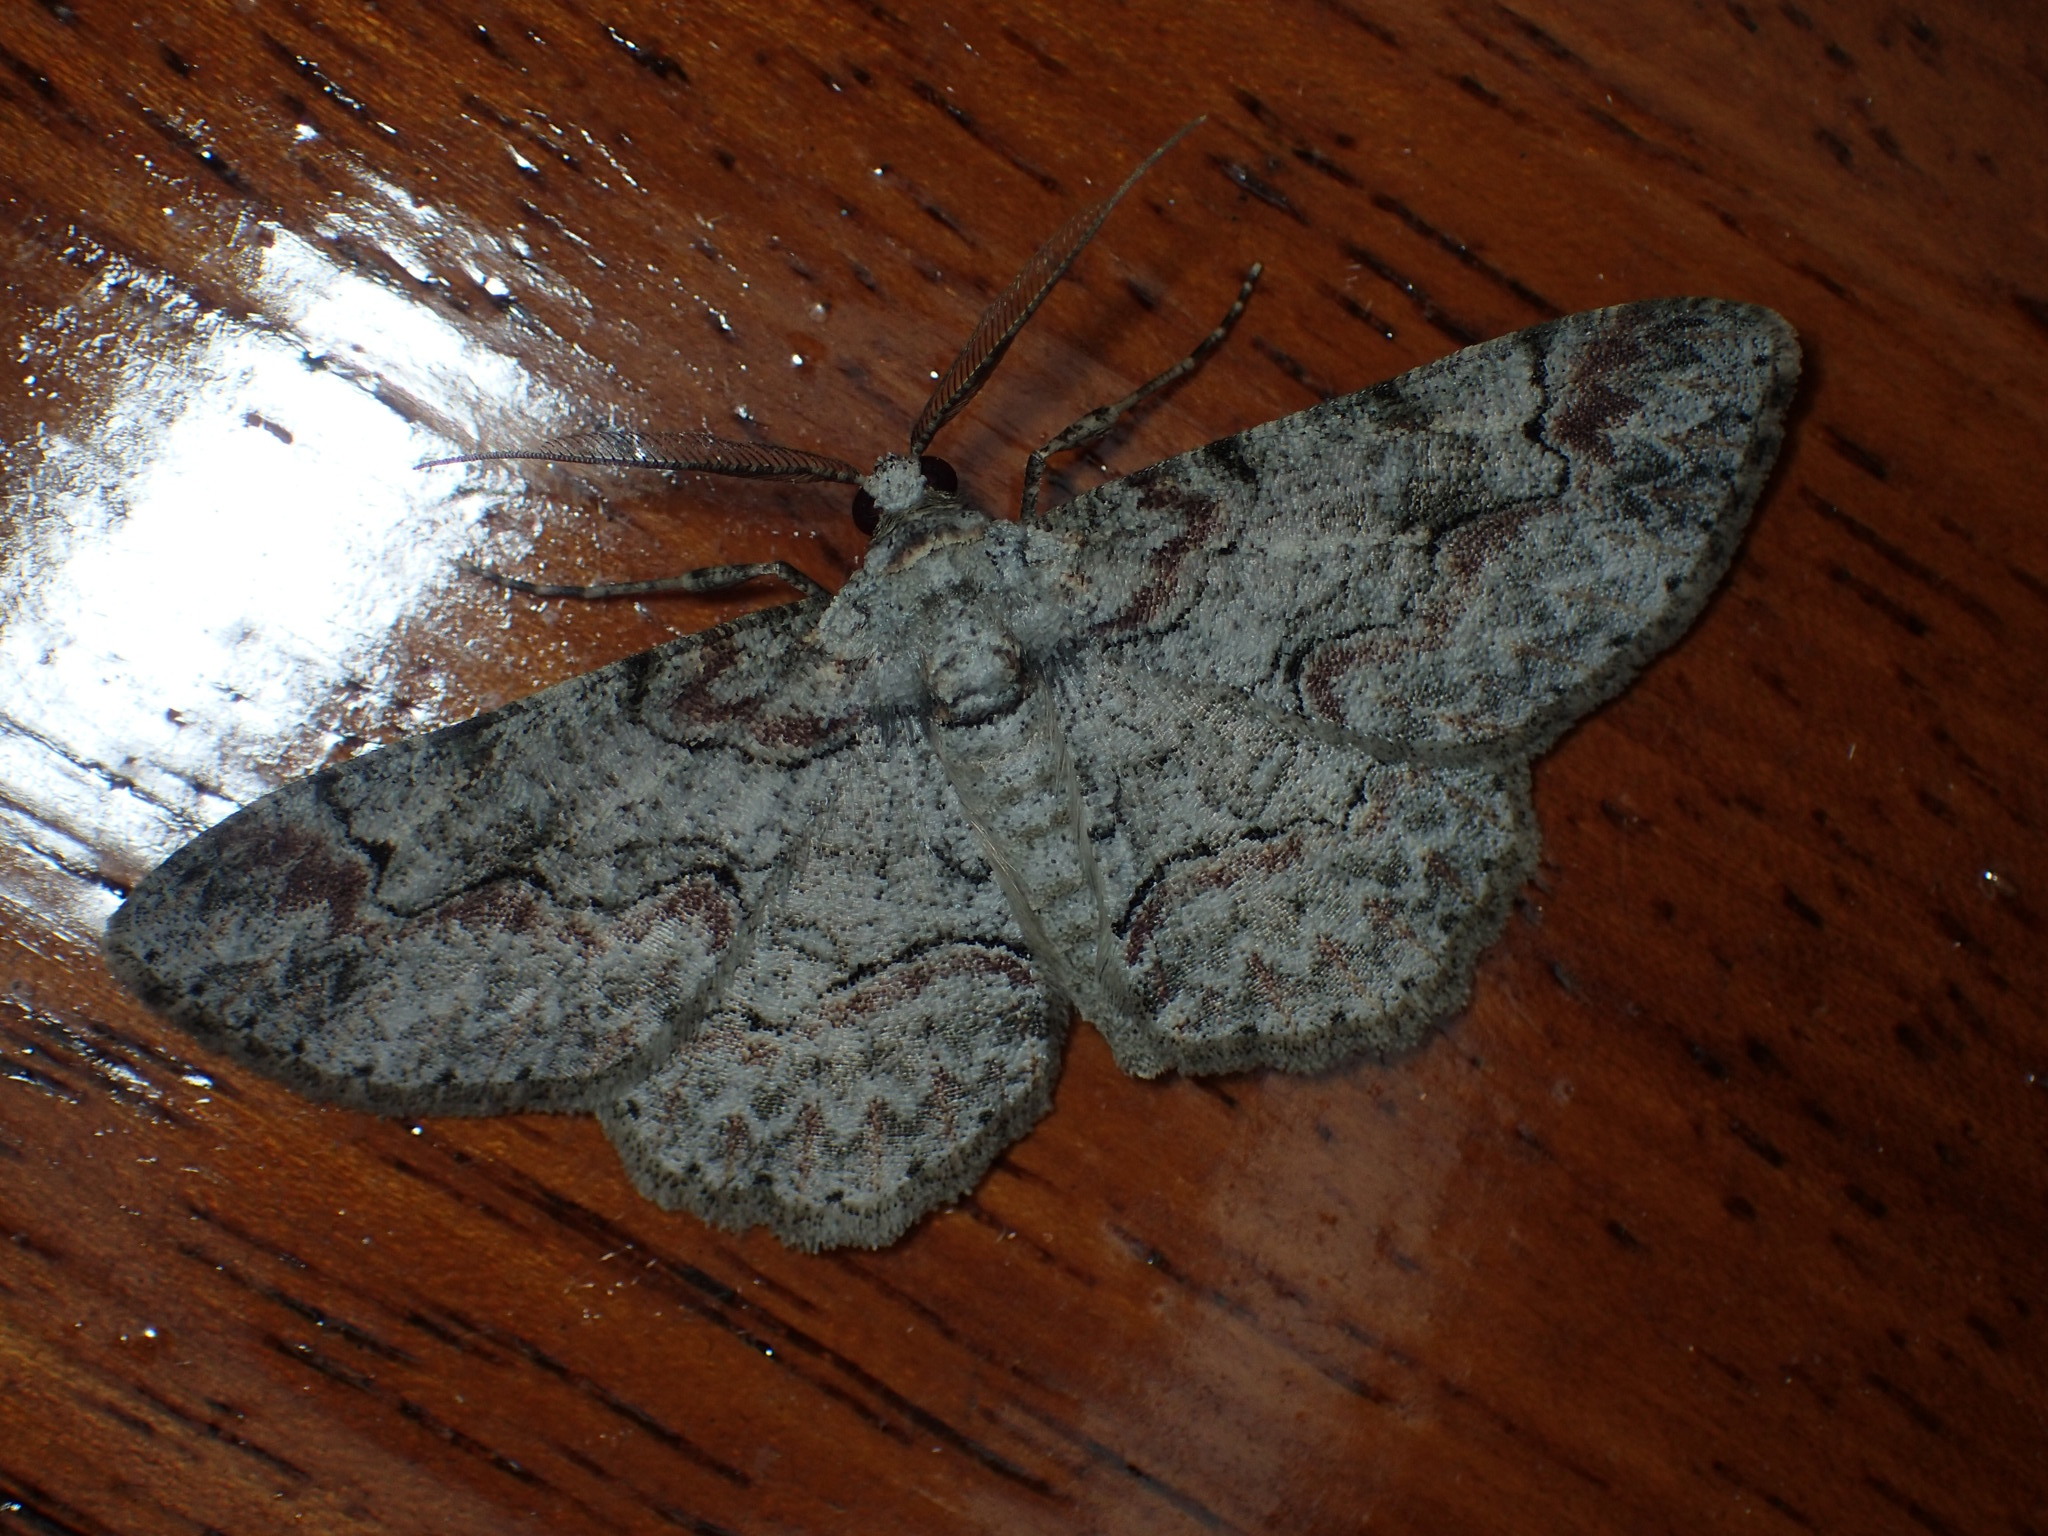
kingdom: Animalia
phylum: Arthropoda
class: Insecta
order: Lepidoptera
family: Geometridae
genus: Iridopsis
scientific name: Iridopsis defectaria
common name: Brown-shaded gray
